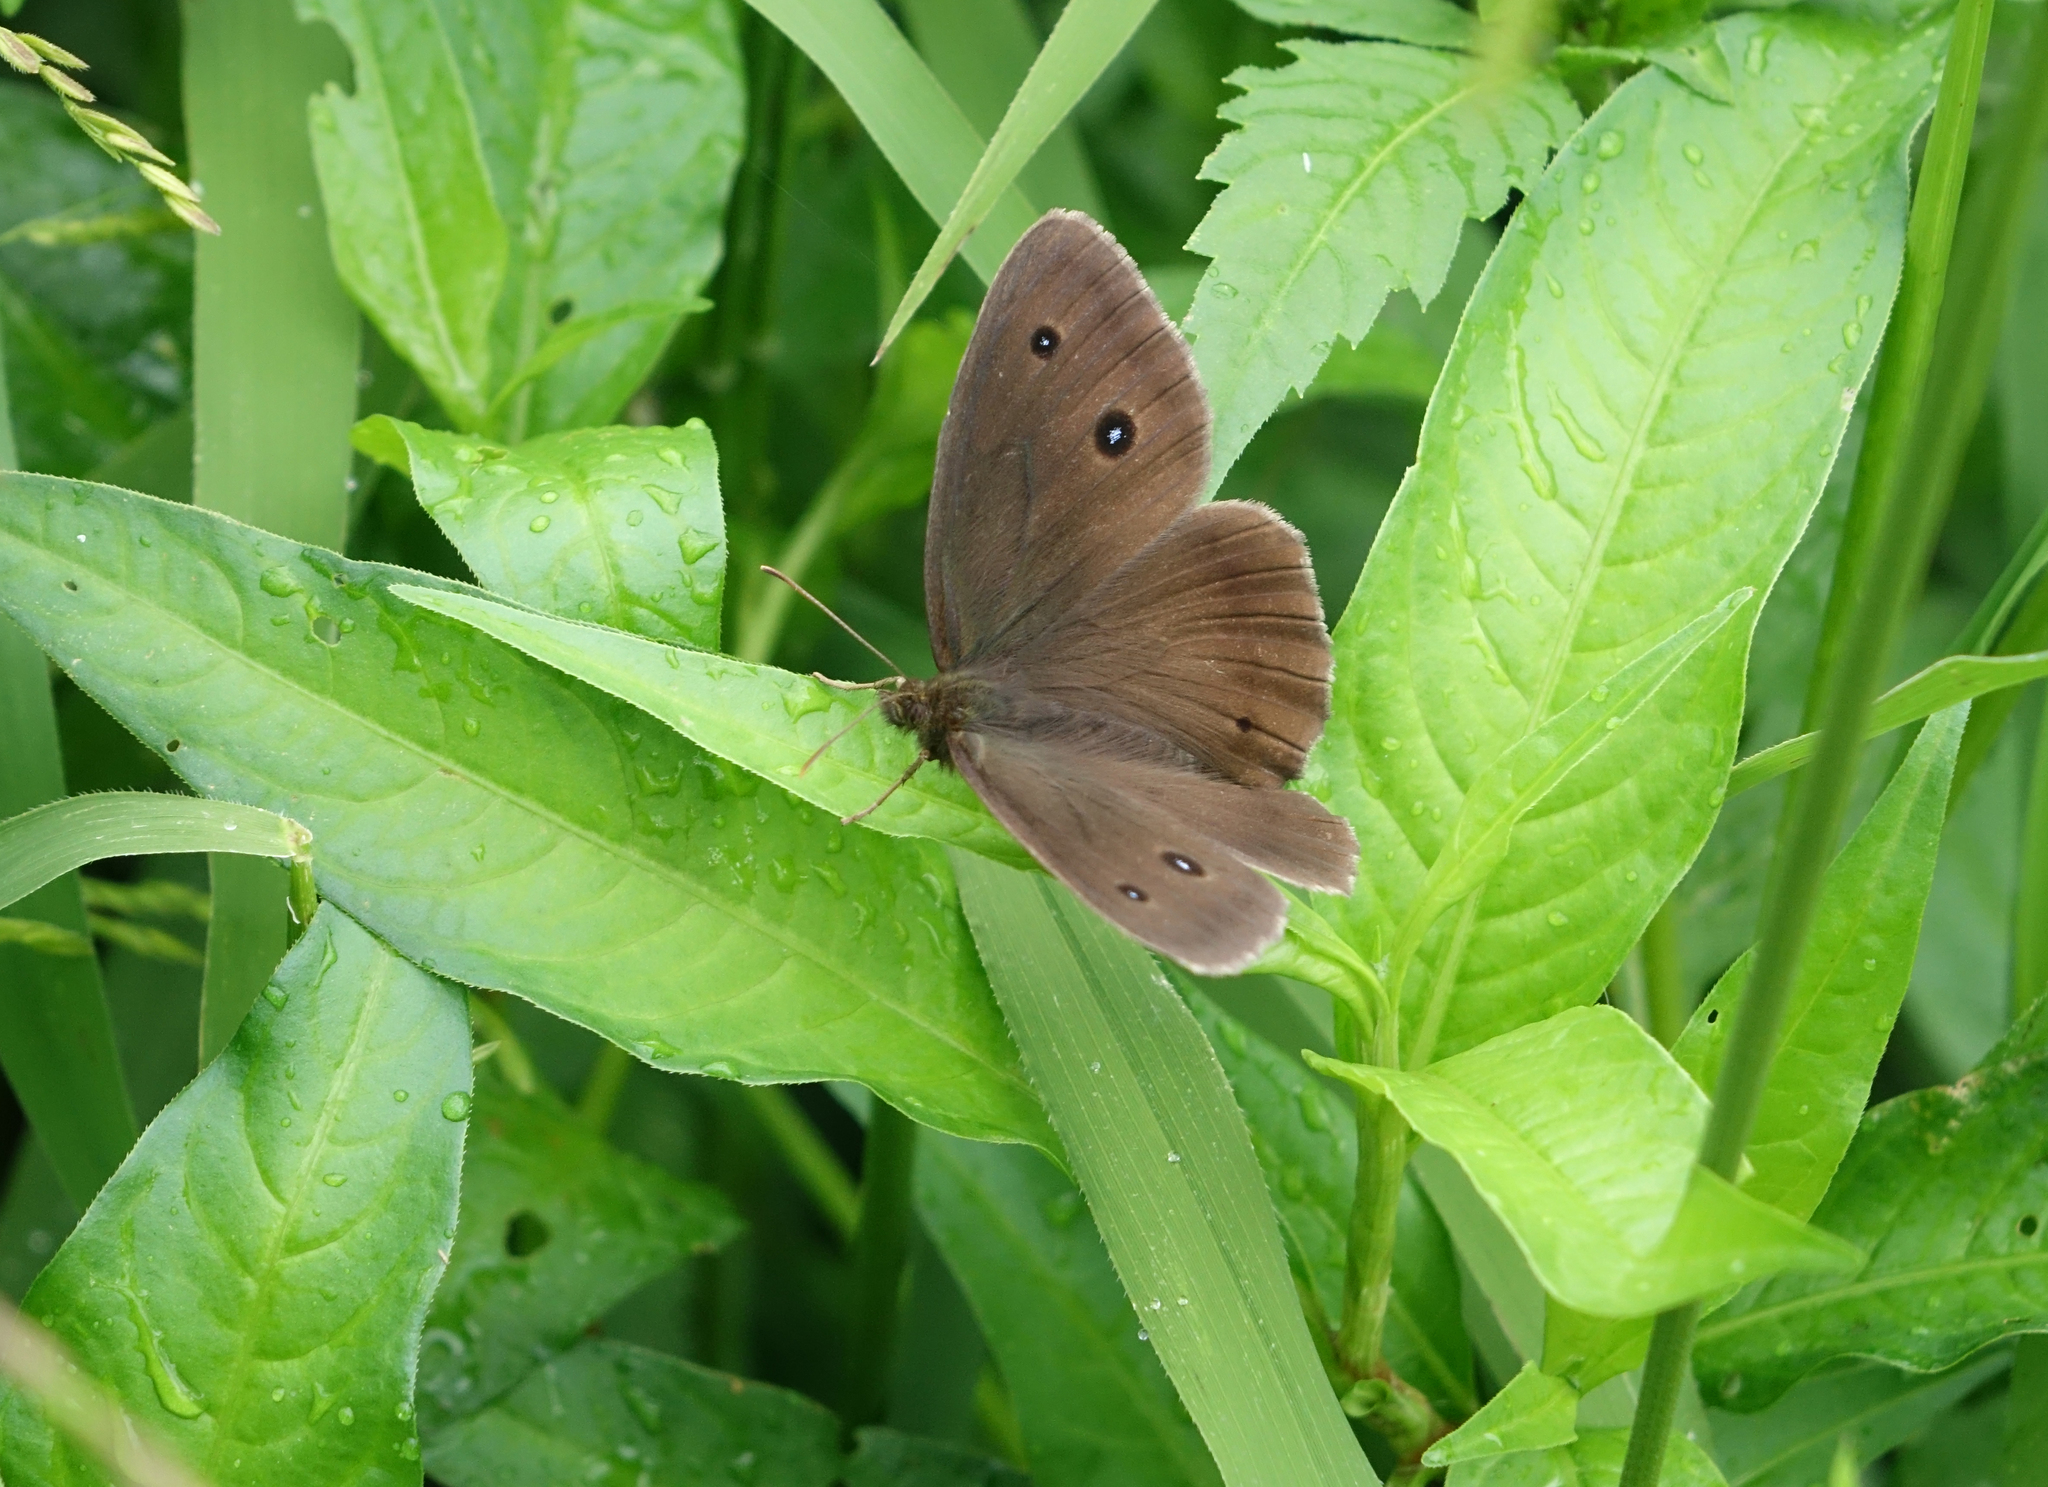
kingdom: Animalia
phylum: Arthropoda
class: Insecta
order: Lepidoptera
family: Nymphalidae
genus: Minois
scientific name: Minois dryas
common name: Dryad
